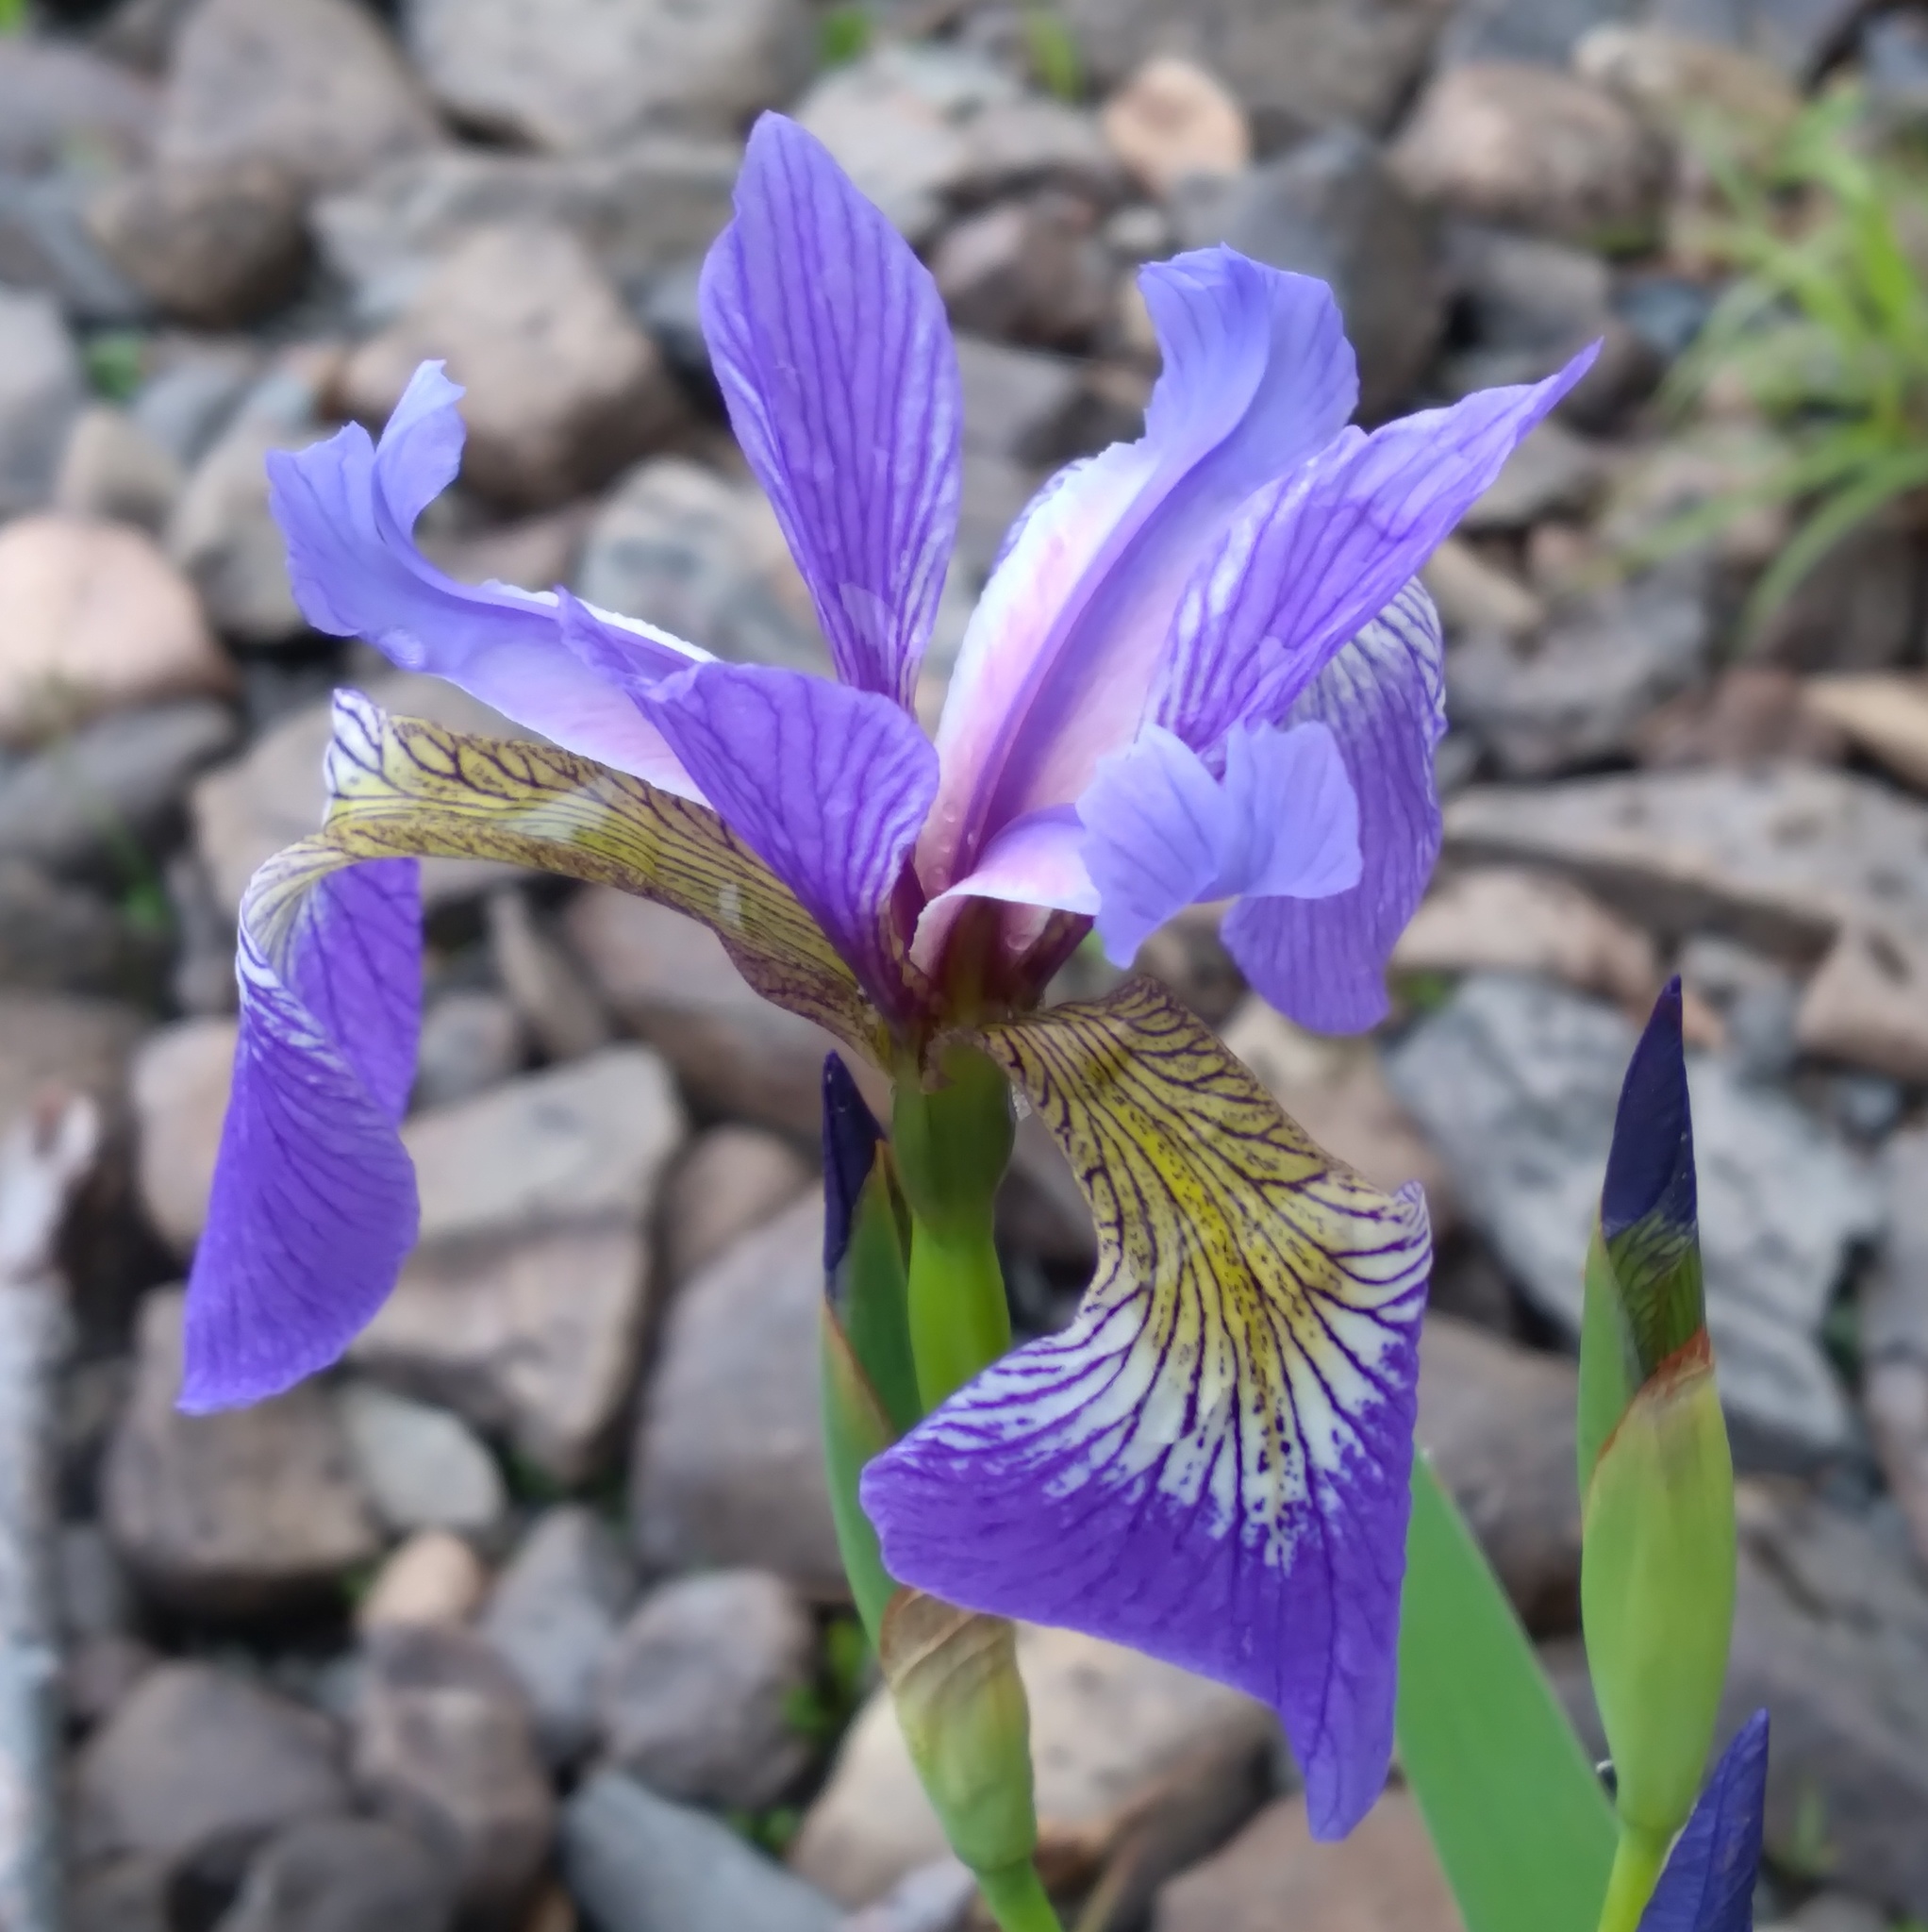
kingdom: Plantae
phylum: Tracheophyta
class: Liliopsida
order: Asparagales
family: Iridaceae
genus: Iris
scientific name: Iris versicolor
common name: Purple iris
